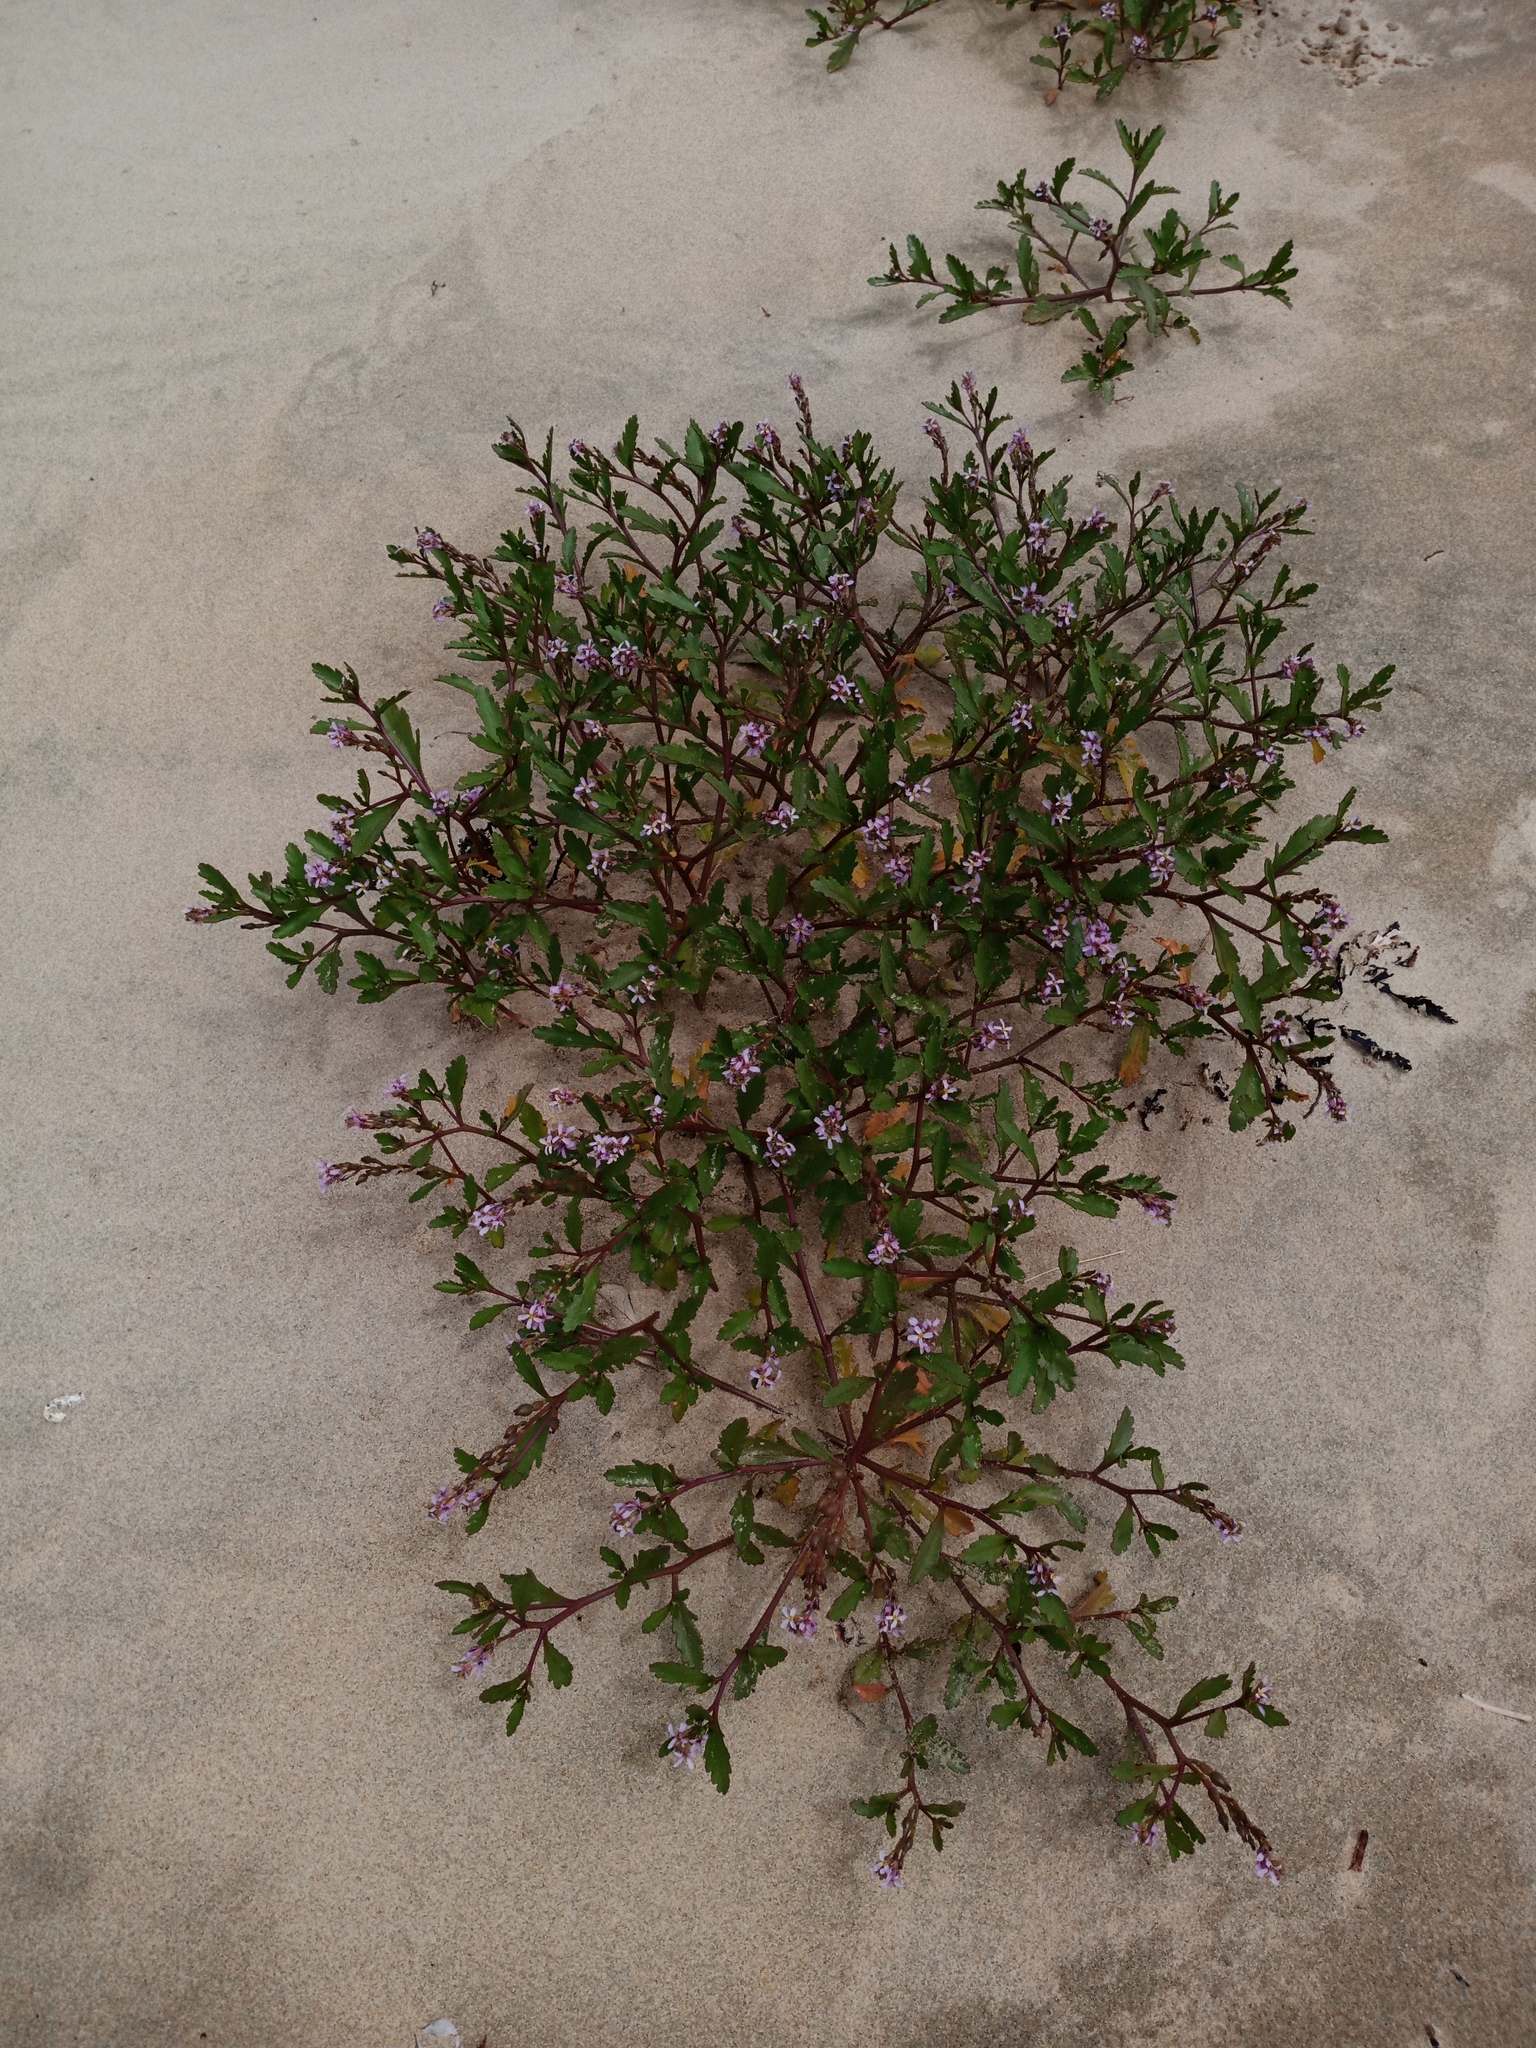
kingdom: Plantae
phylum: Tracheophyta
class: Magnoliopsida
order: Brassicales
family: Brassicaceae
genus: Cakile
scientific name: Cakile edentula
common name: American sea rocket
